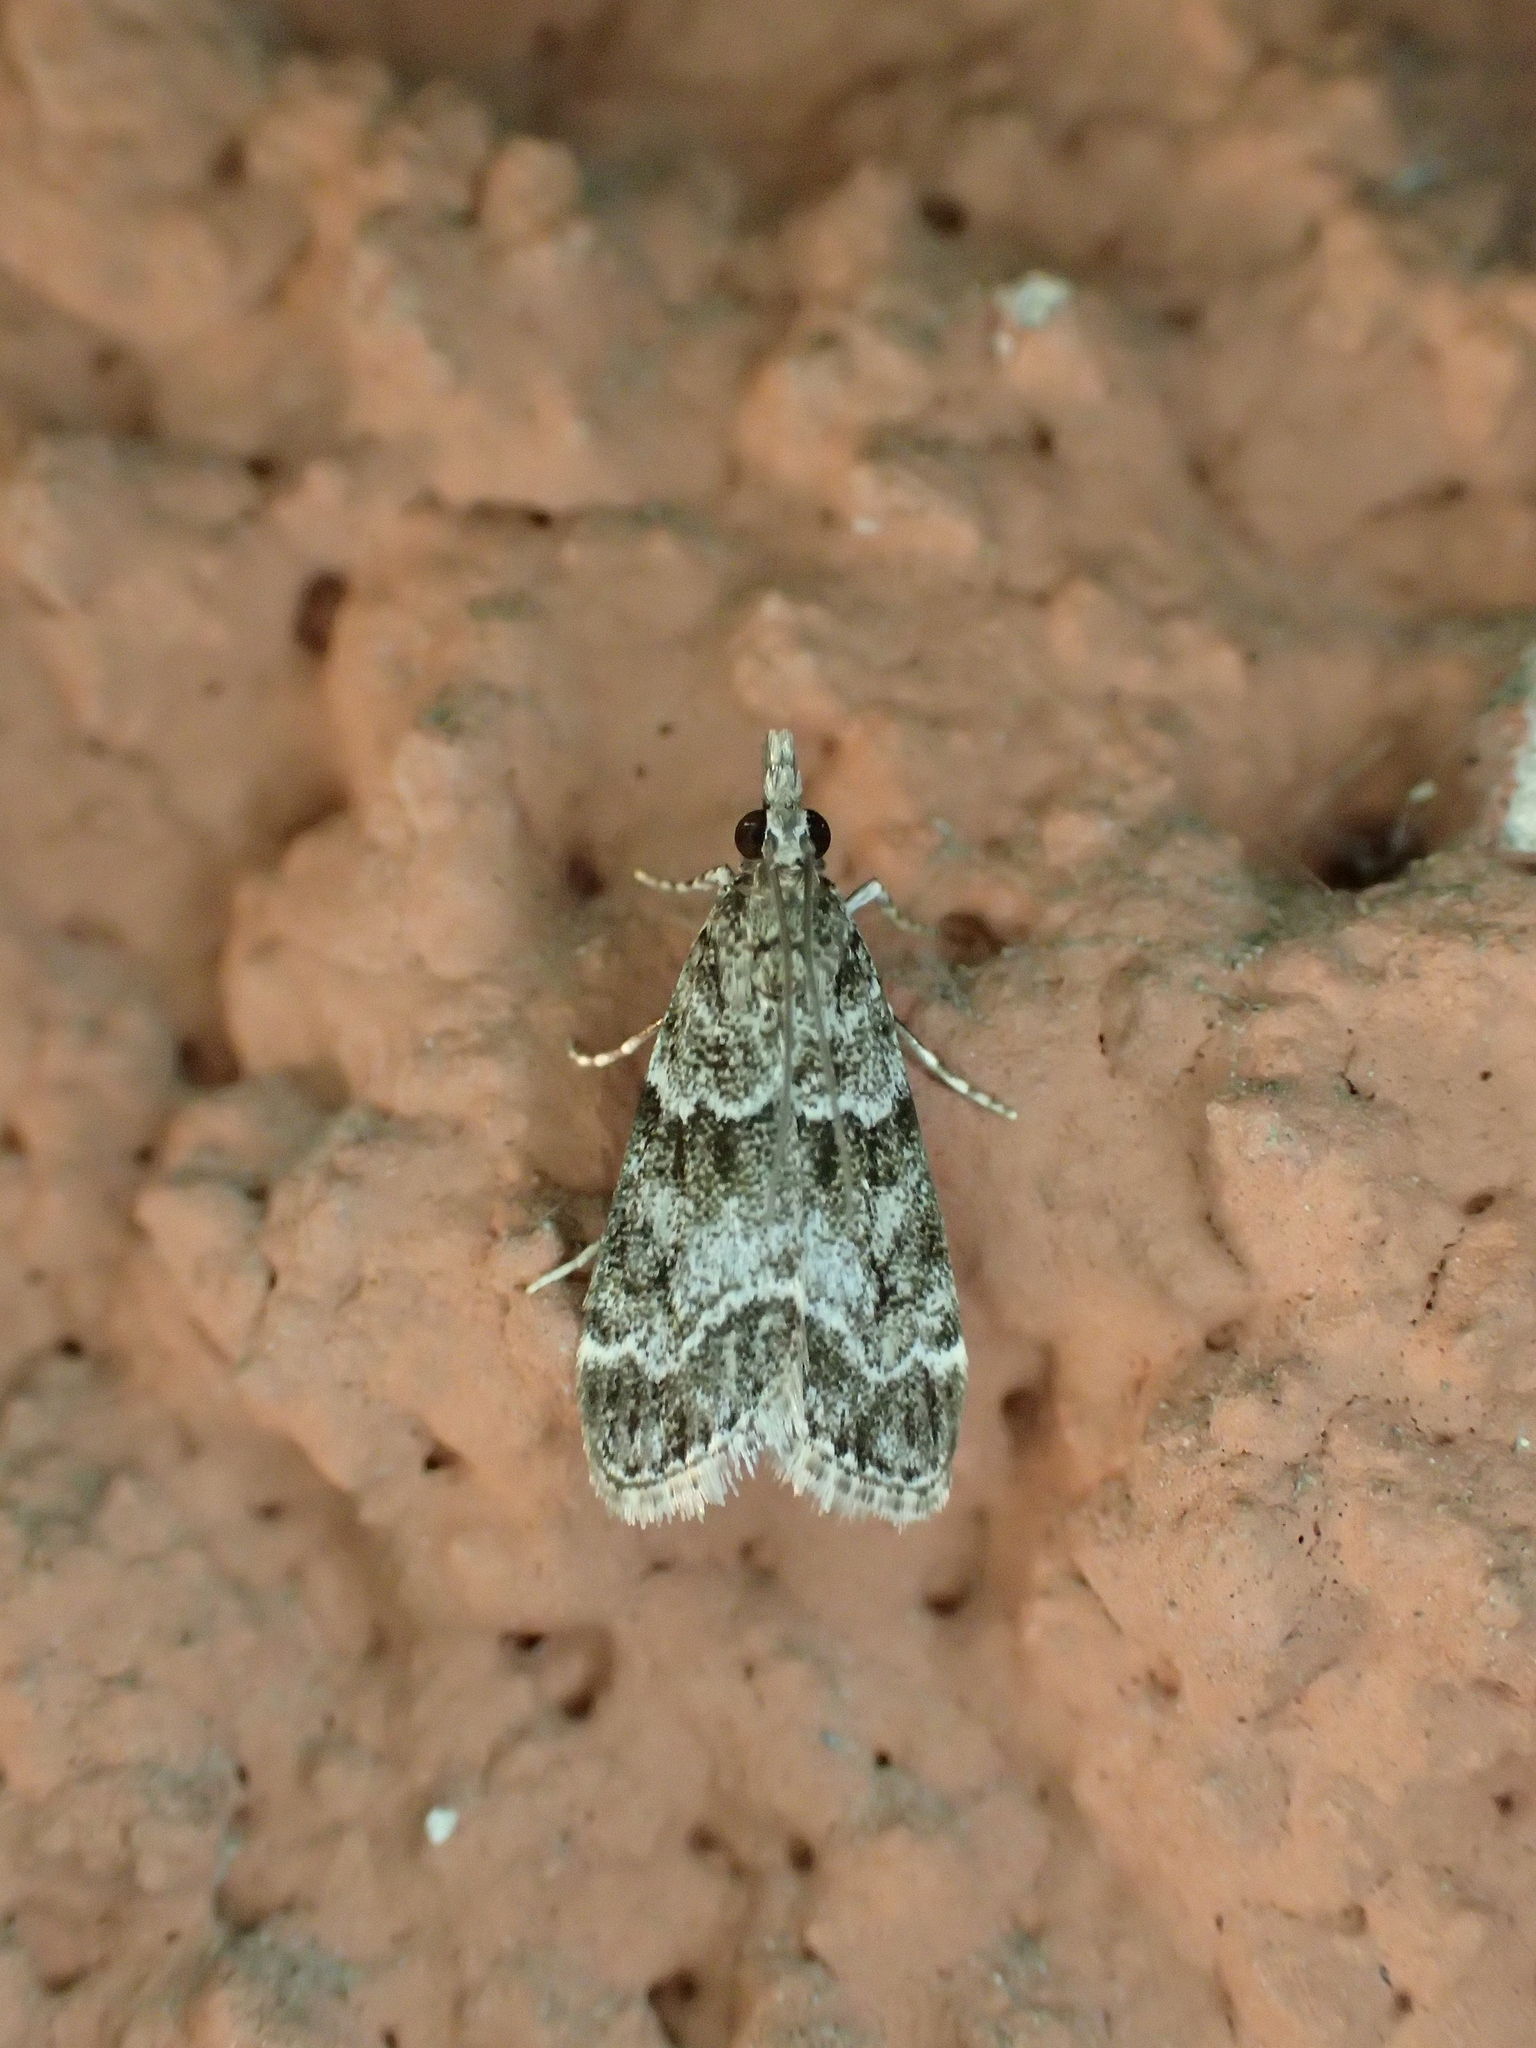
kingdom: Animalia
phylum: Arthropoda
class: Insecta
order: Lepidoptera
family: Crambidae
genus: Eudonia
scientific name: Eudonia mercurella
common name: Small grey
